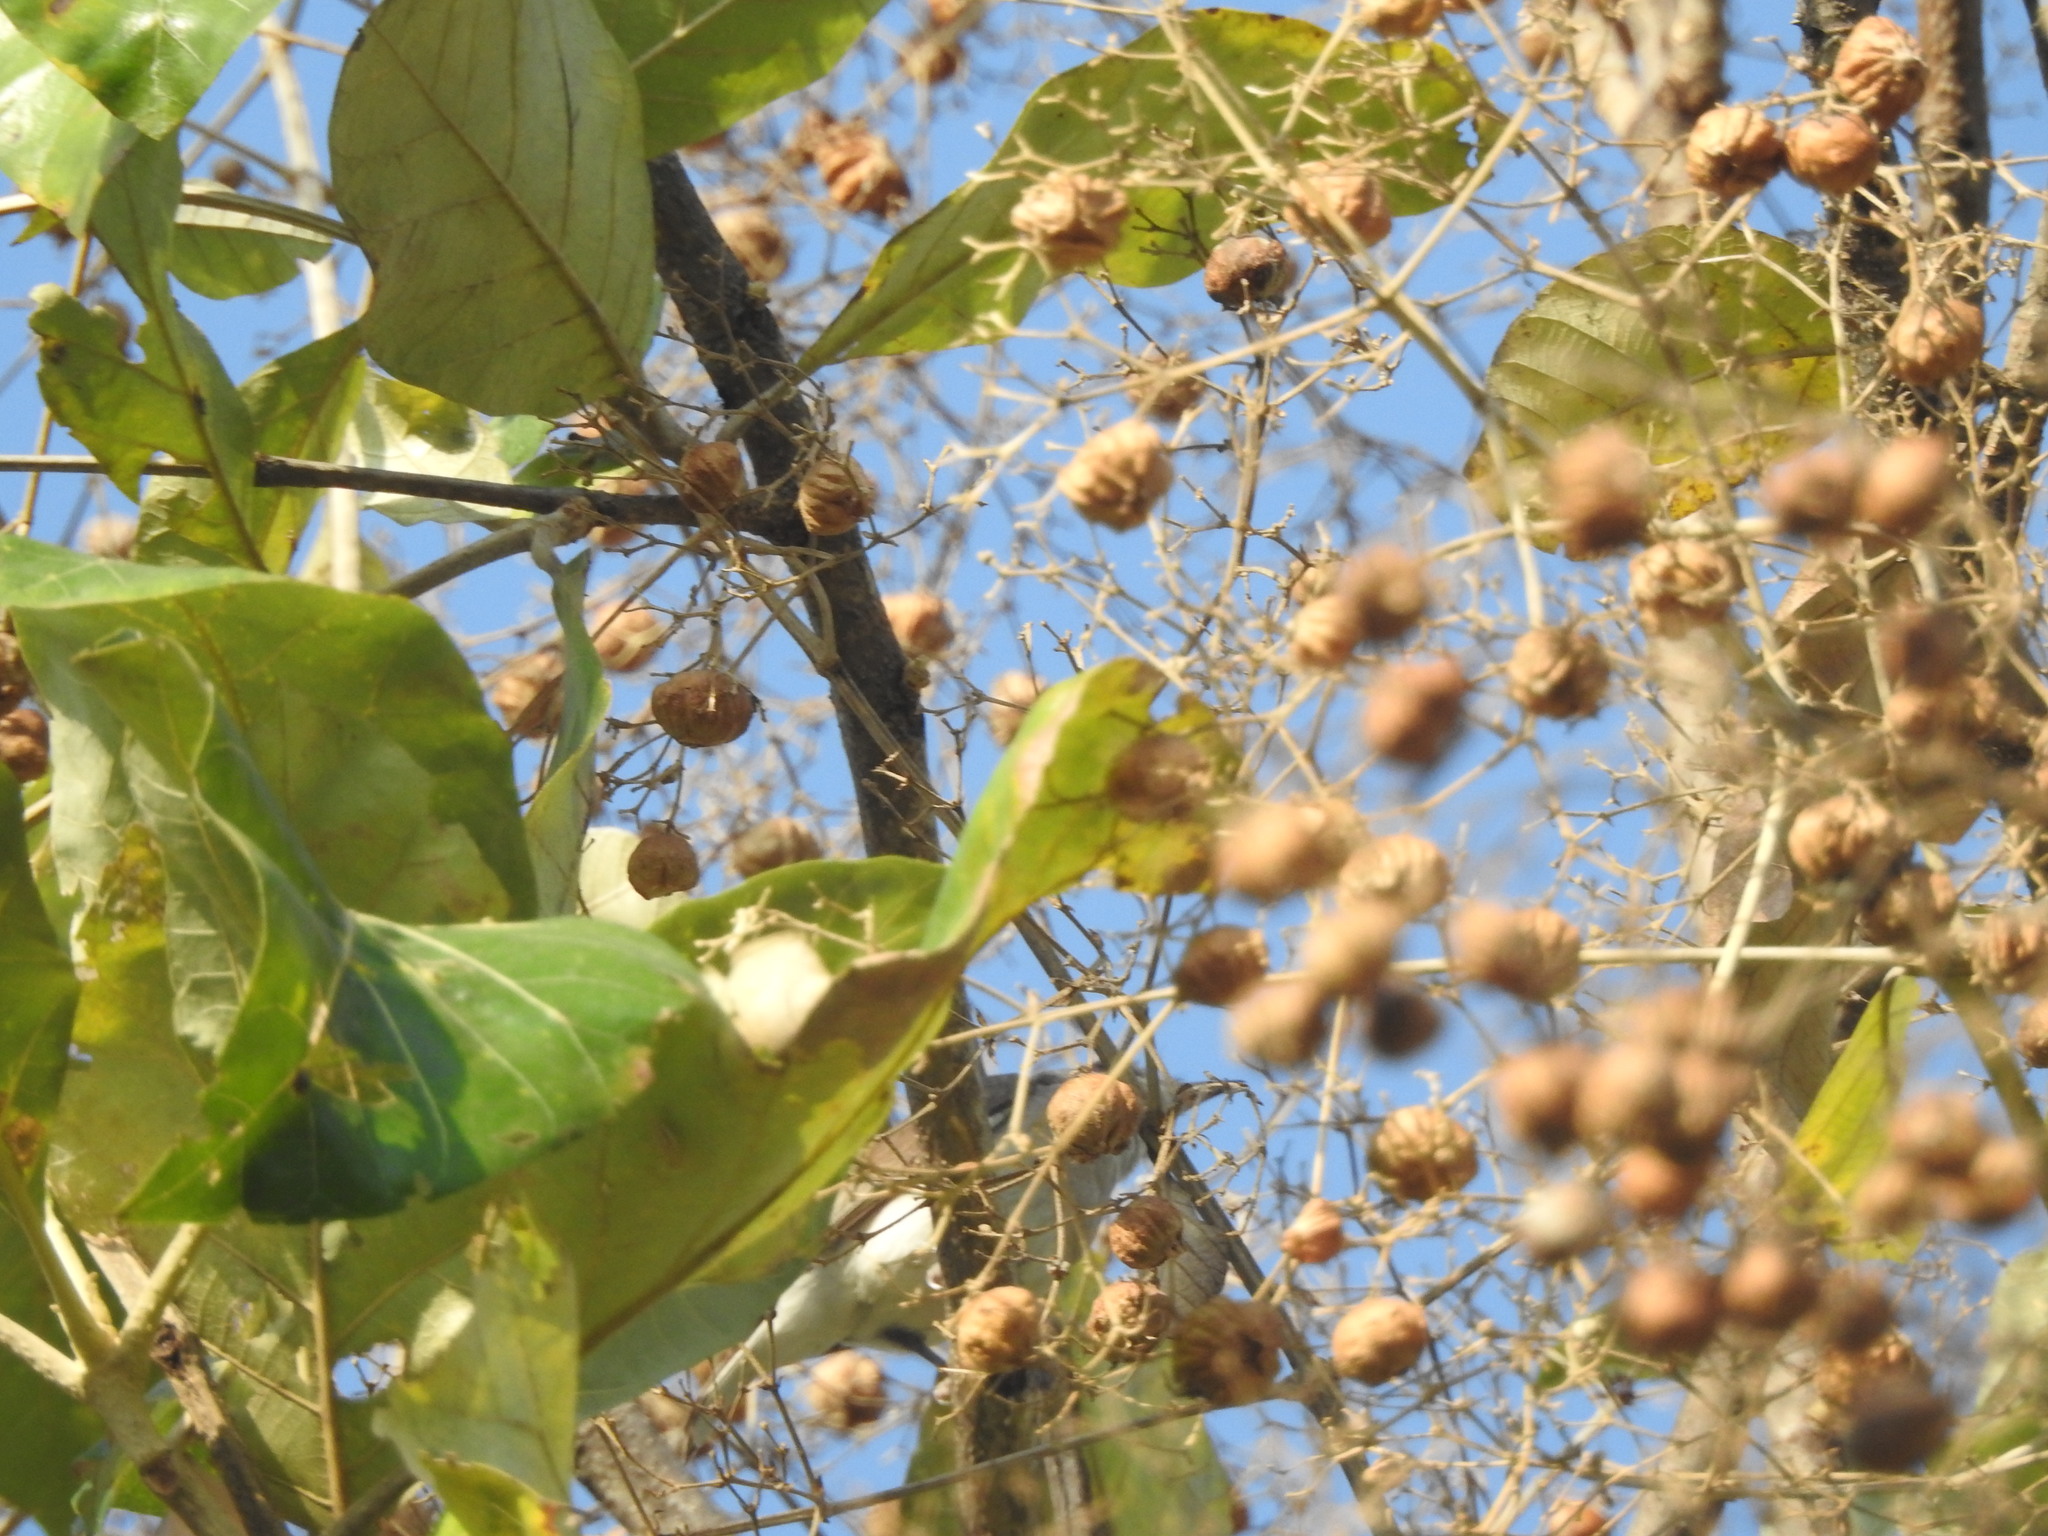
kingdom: Plantae
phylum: Tracheophyta
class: Magnoliopsida
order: Lamiales
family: Lamiaceae
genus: Tectona
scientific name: Tectona grandis
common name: Teak
